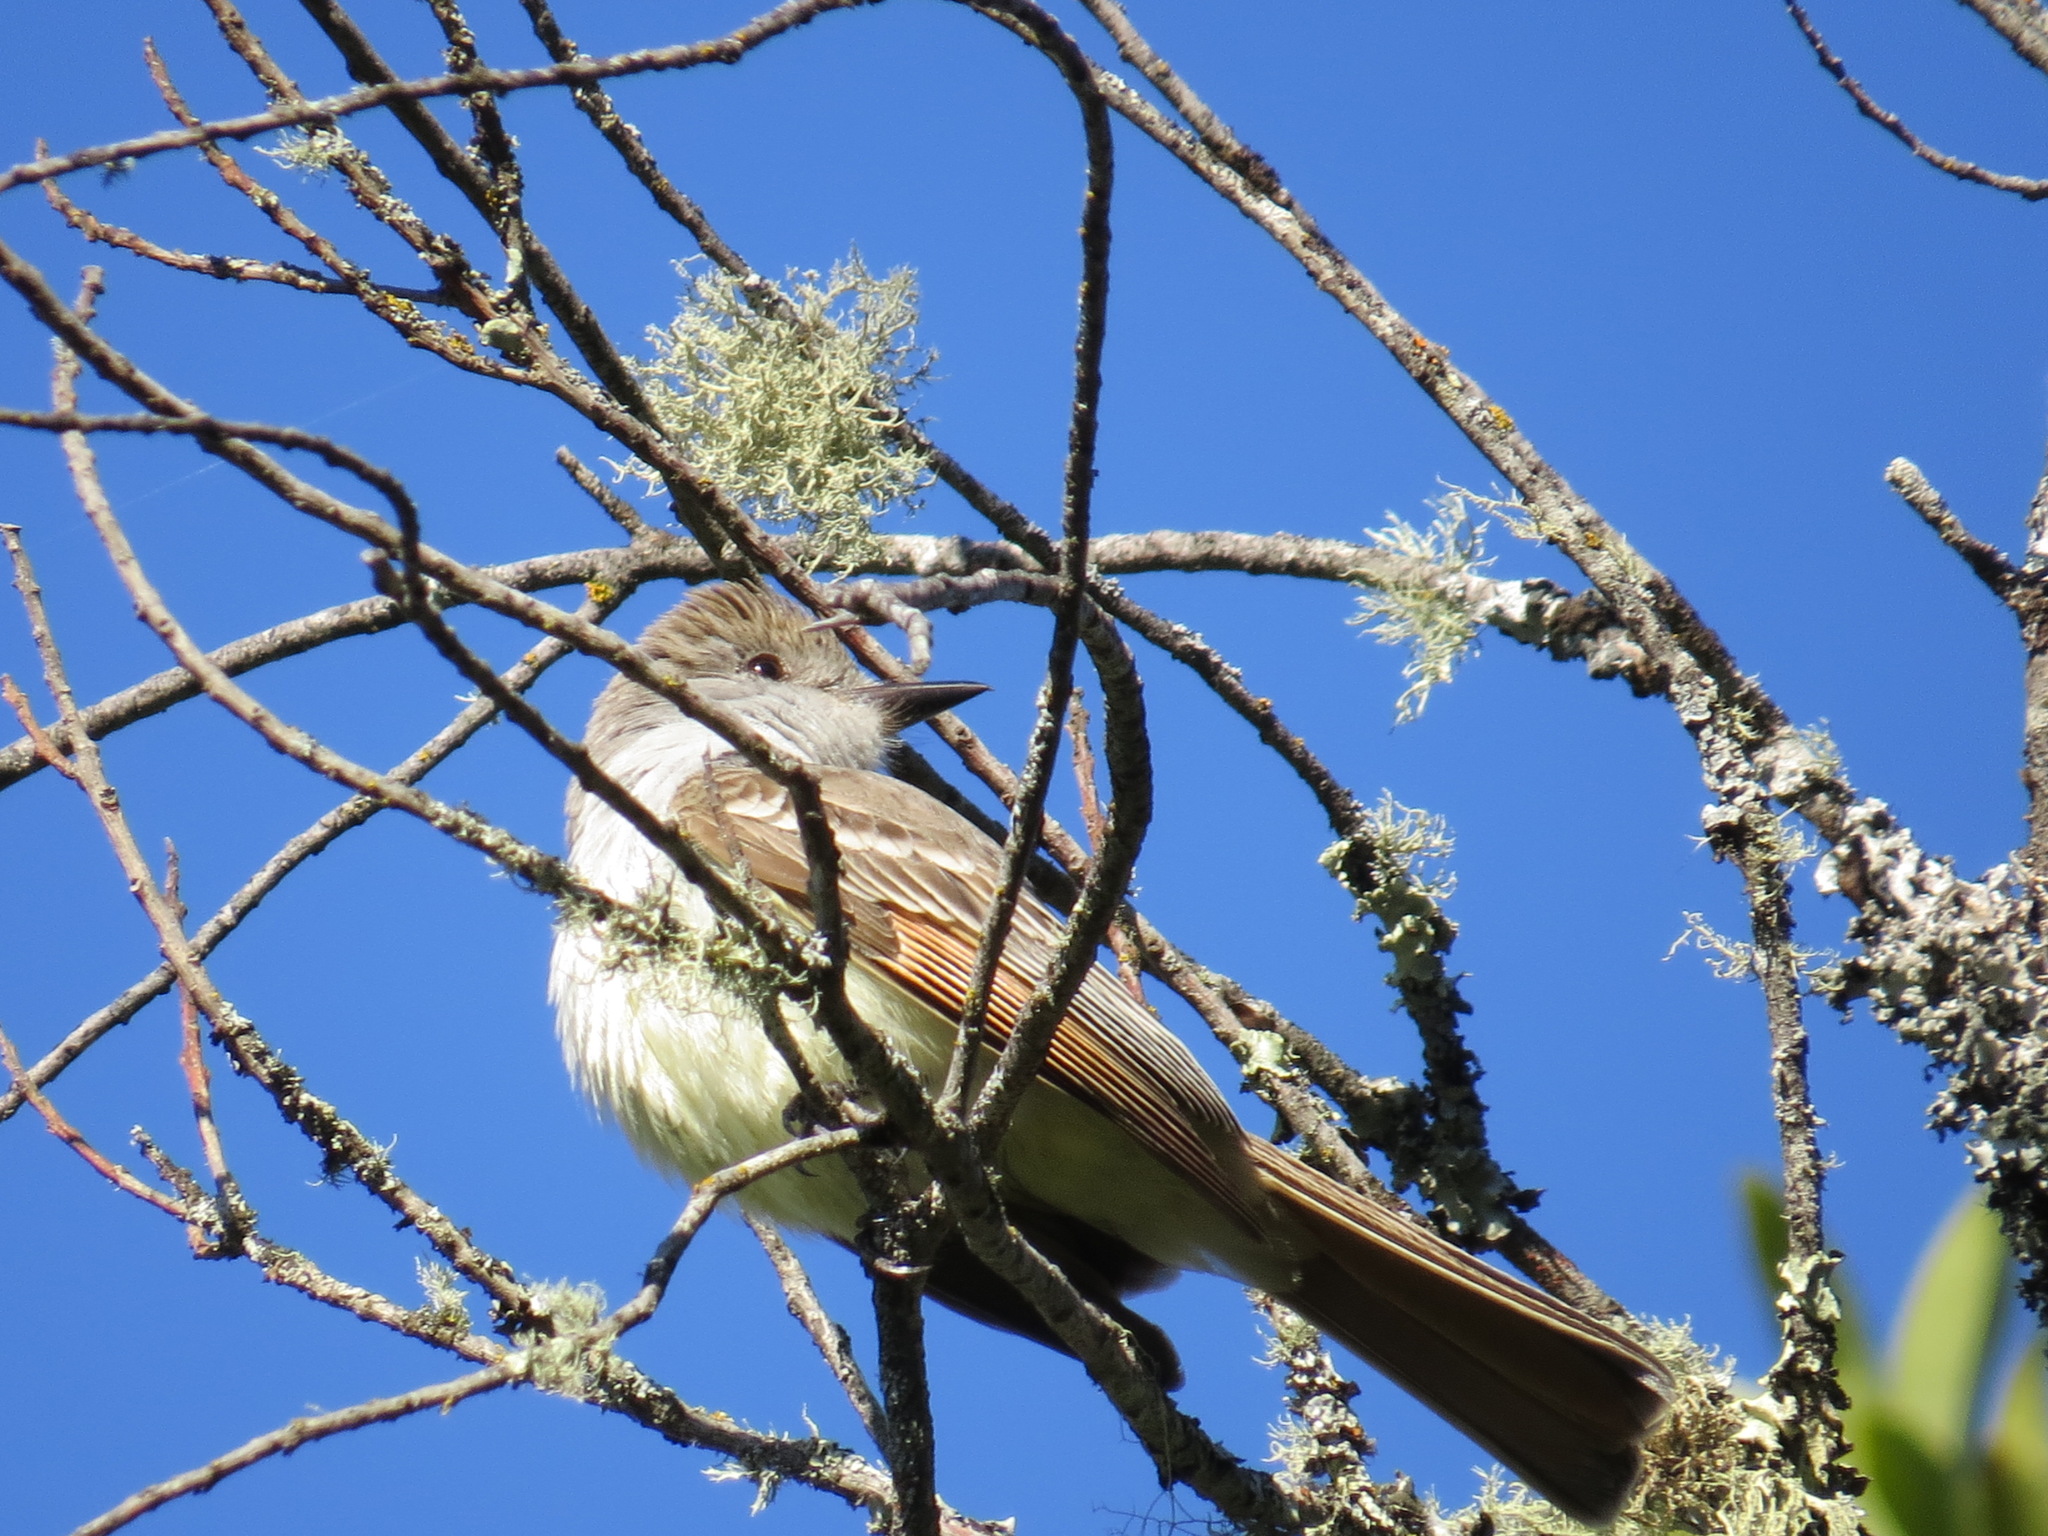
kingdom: Animalia
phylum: Chordata
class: Aves
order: Passeriformes
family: Tyrannidae
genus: Myiarchus
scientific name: Myiarchus cinerascens
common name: Ash-throated flycatcher
